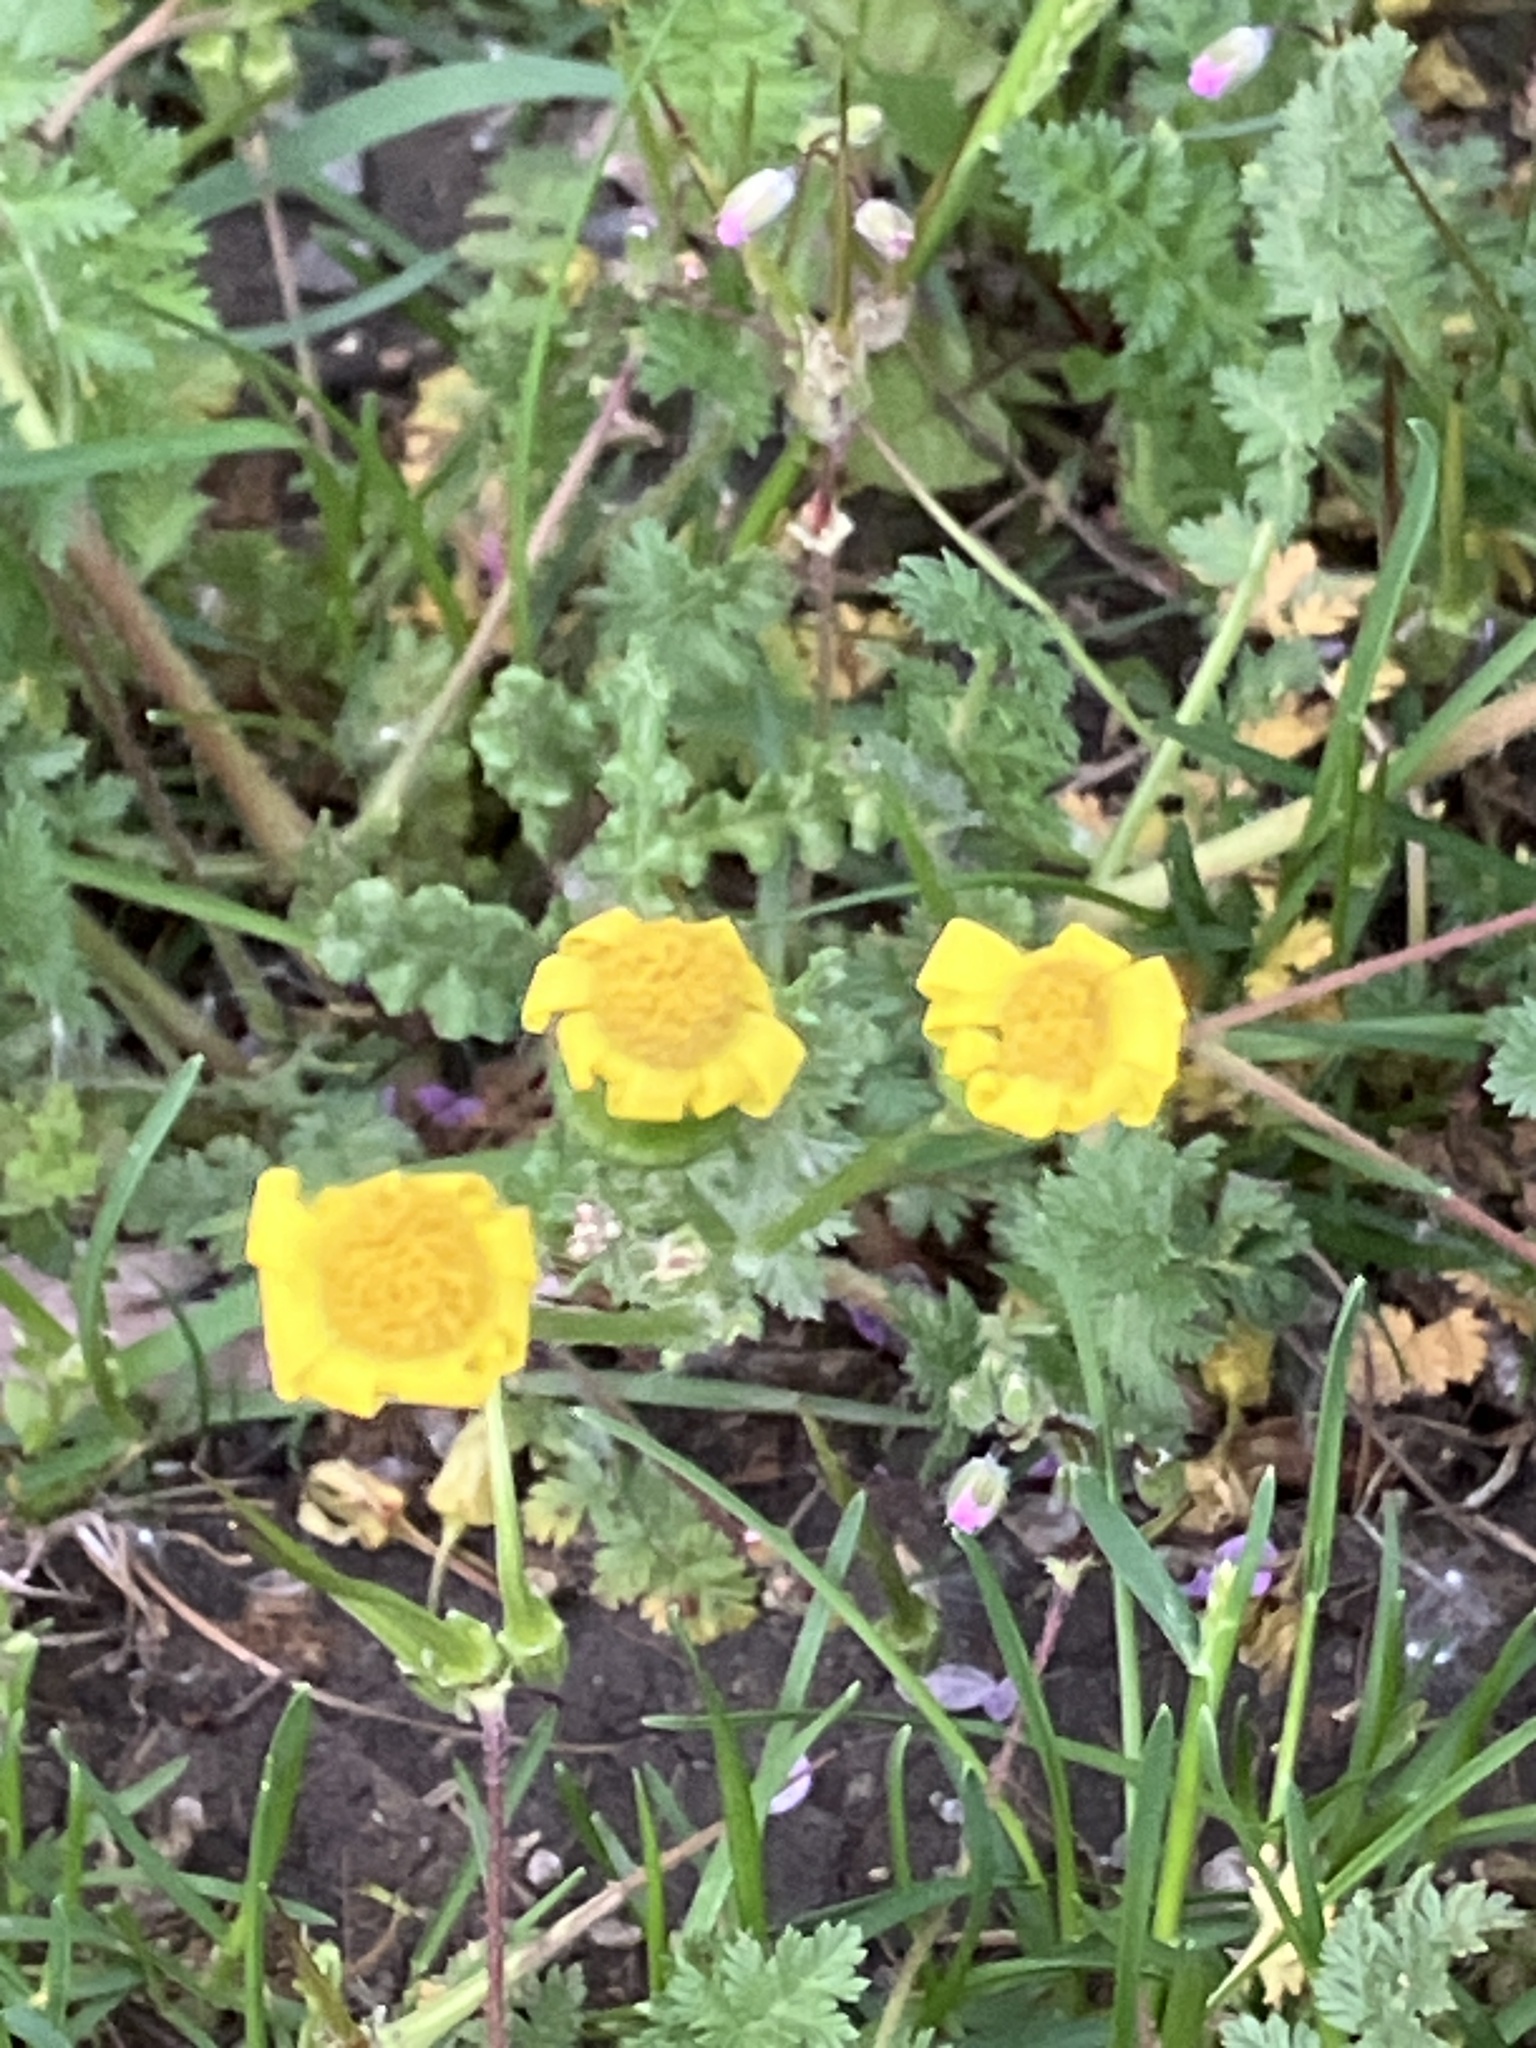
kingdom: Plantae
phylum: Tracheophyta
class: Magnoliopsida
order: Asterales
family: Asteraceae
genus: Senecio
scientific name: Senecio vernalis
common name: Eastern groundsel
